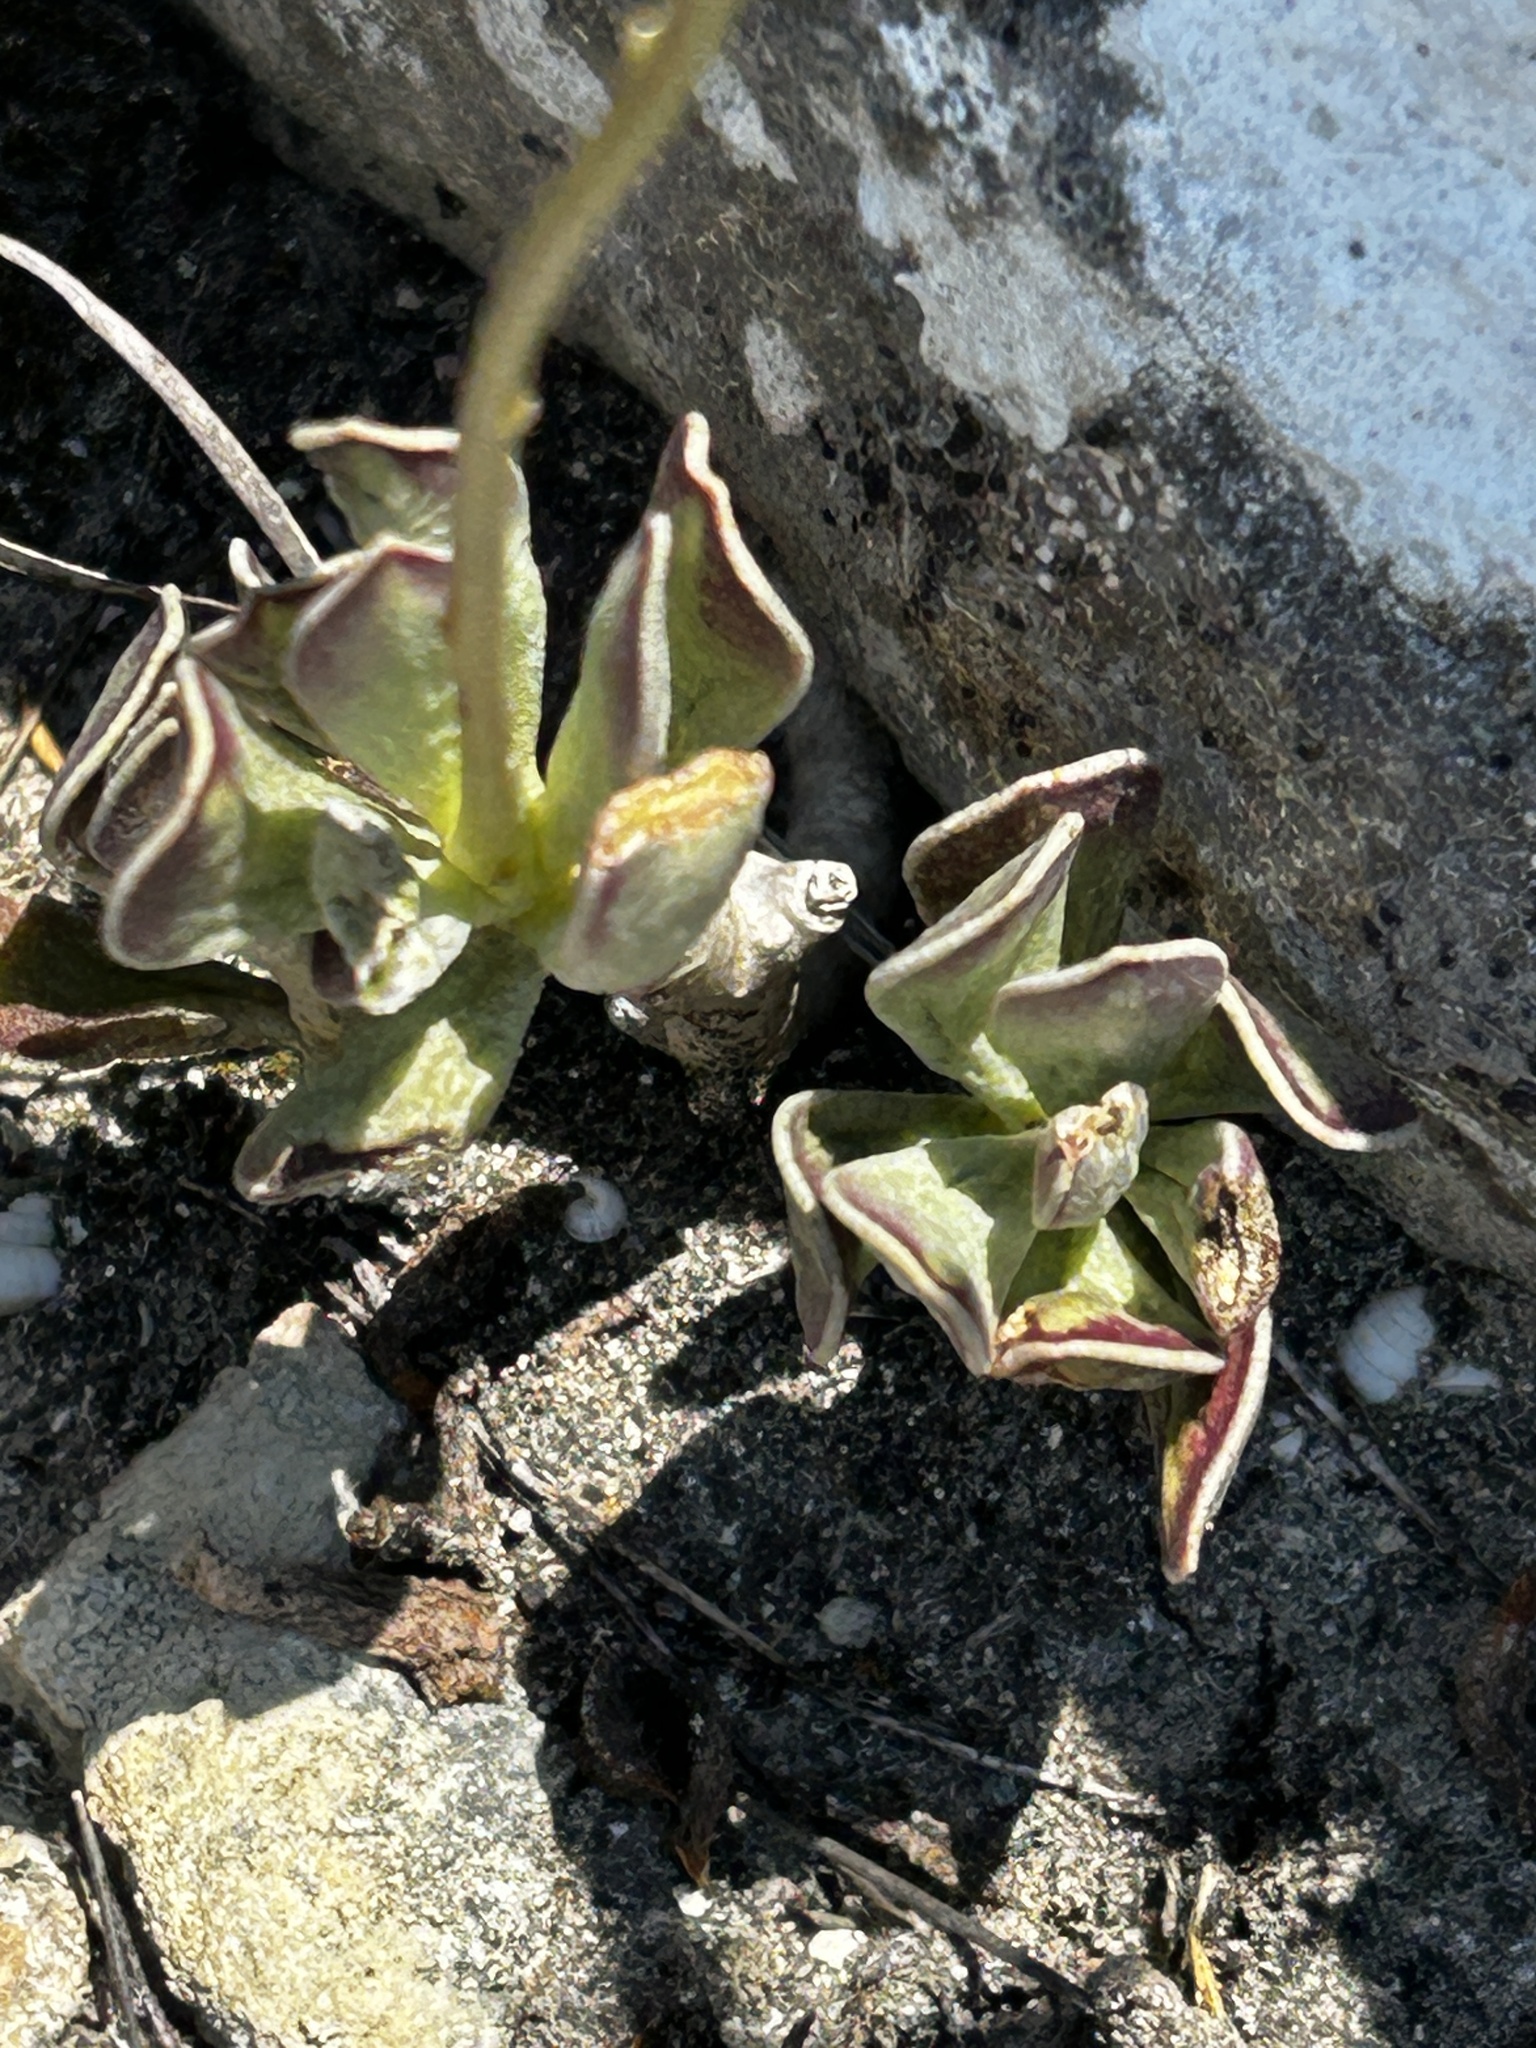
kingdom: Plantae
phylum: Tracheophyta
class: Magnoliopsida
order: Saxifragales
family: Crassulaceae
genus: Adromischus
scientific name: Adromischus caryophyllaceus
